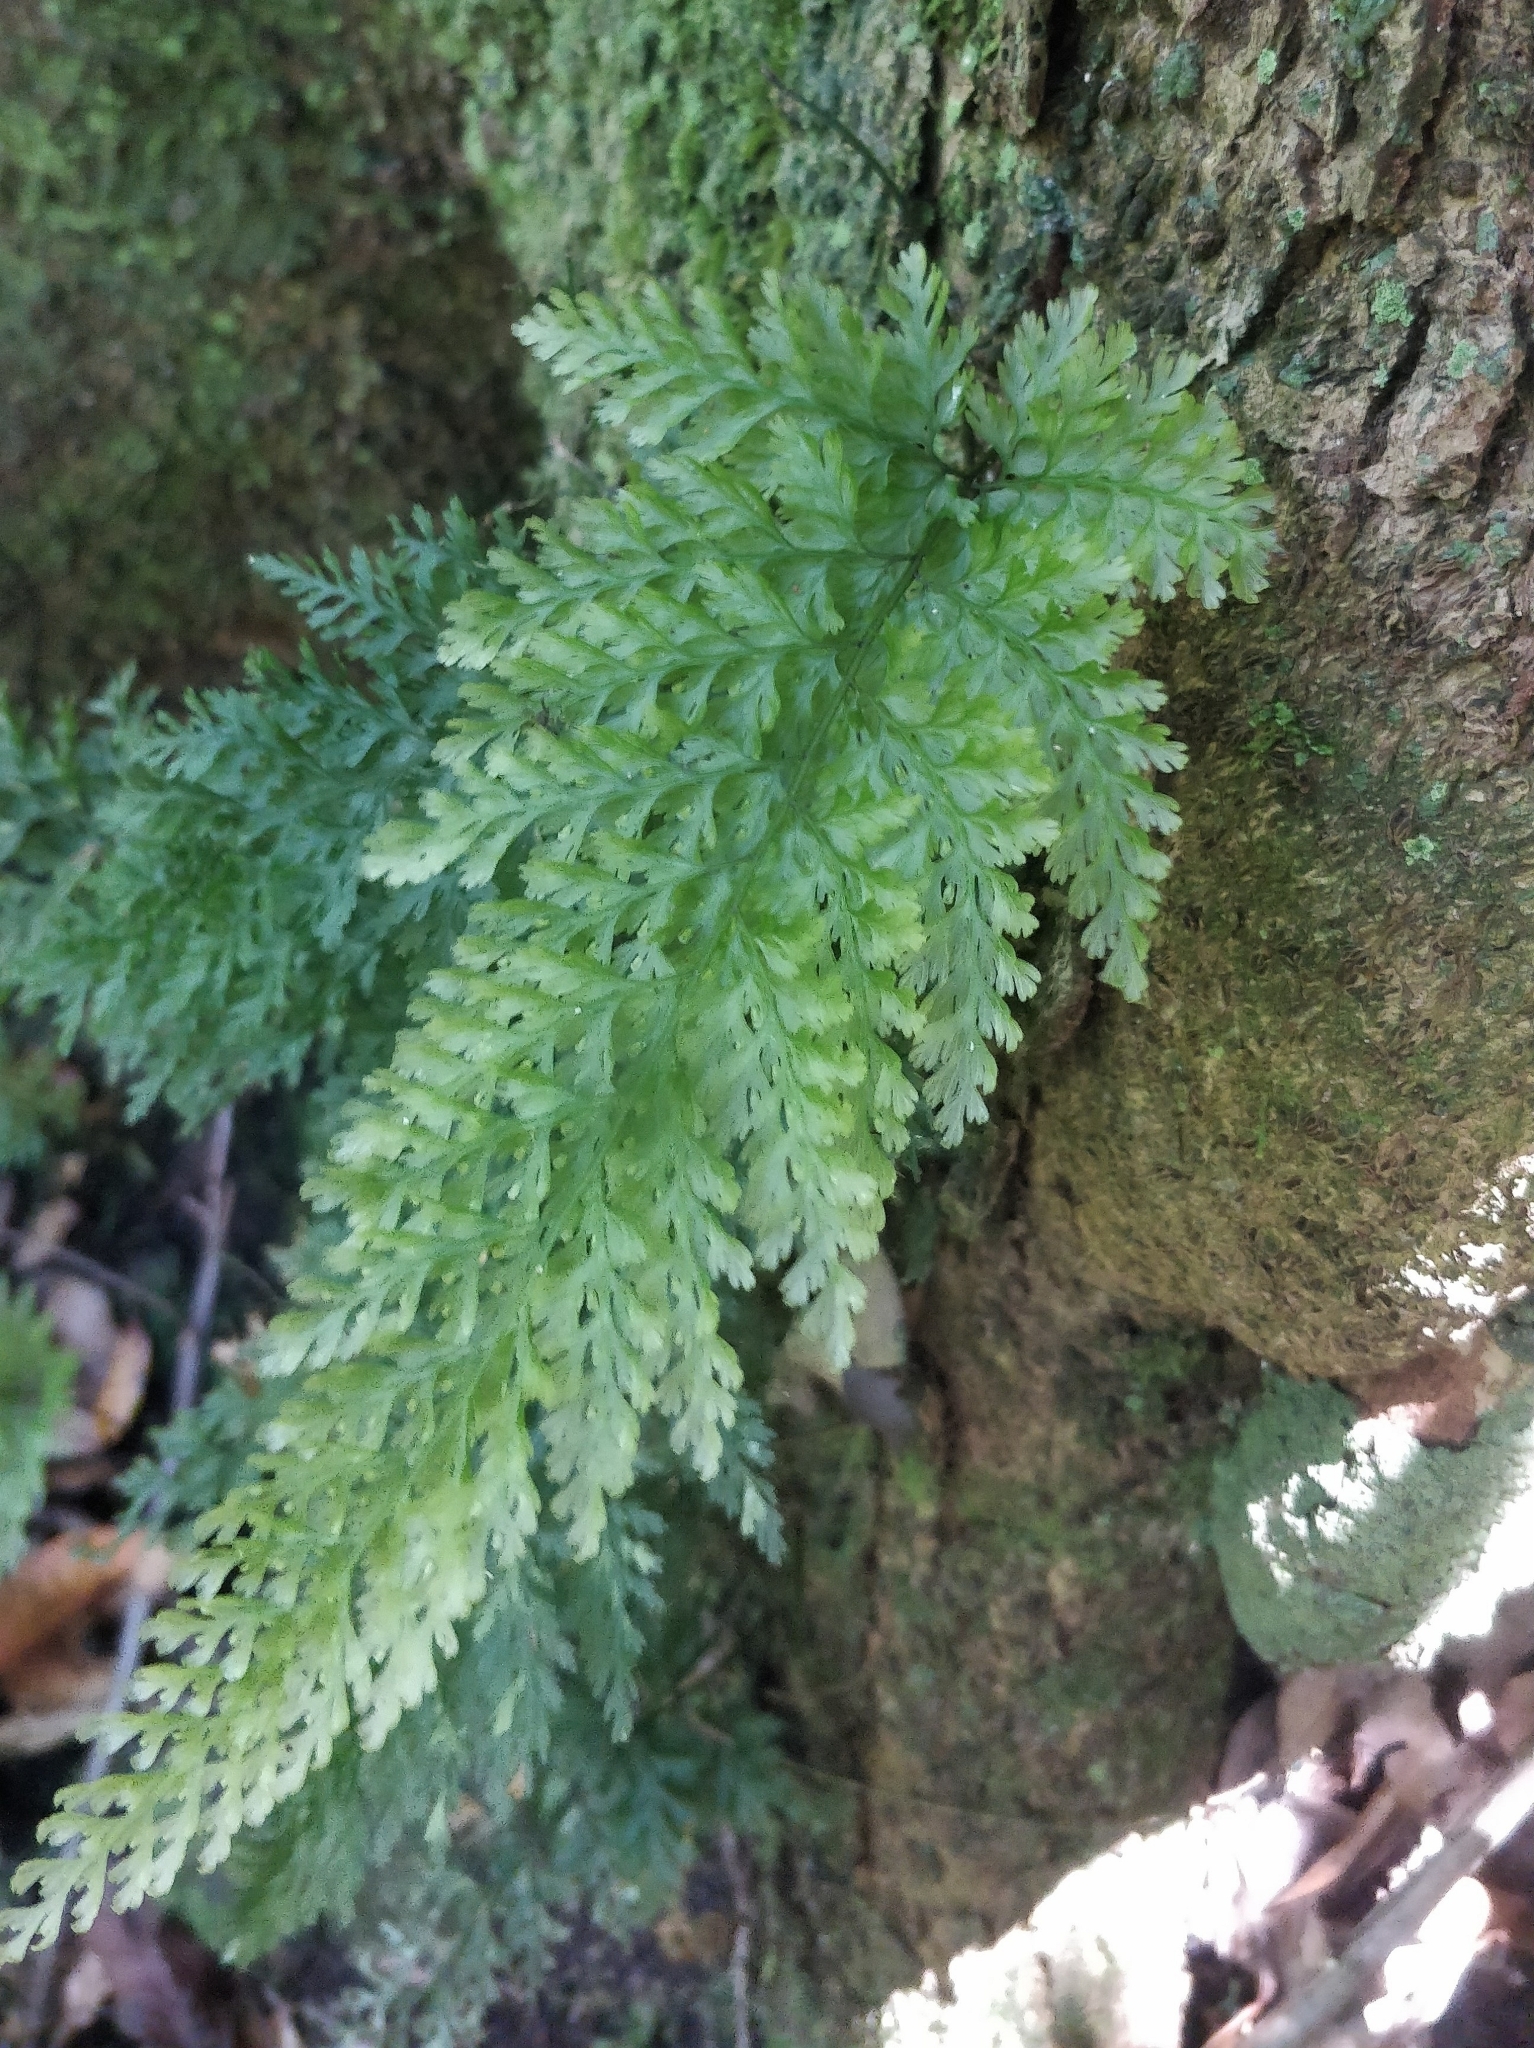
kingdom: Plantae
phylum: Tracheophyta
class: Polypodiopsida
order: Hymenophyllales
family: Hymenophyllaceae
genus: Vandenboschia
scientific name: Vandenboschia speciosa
